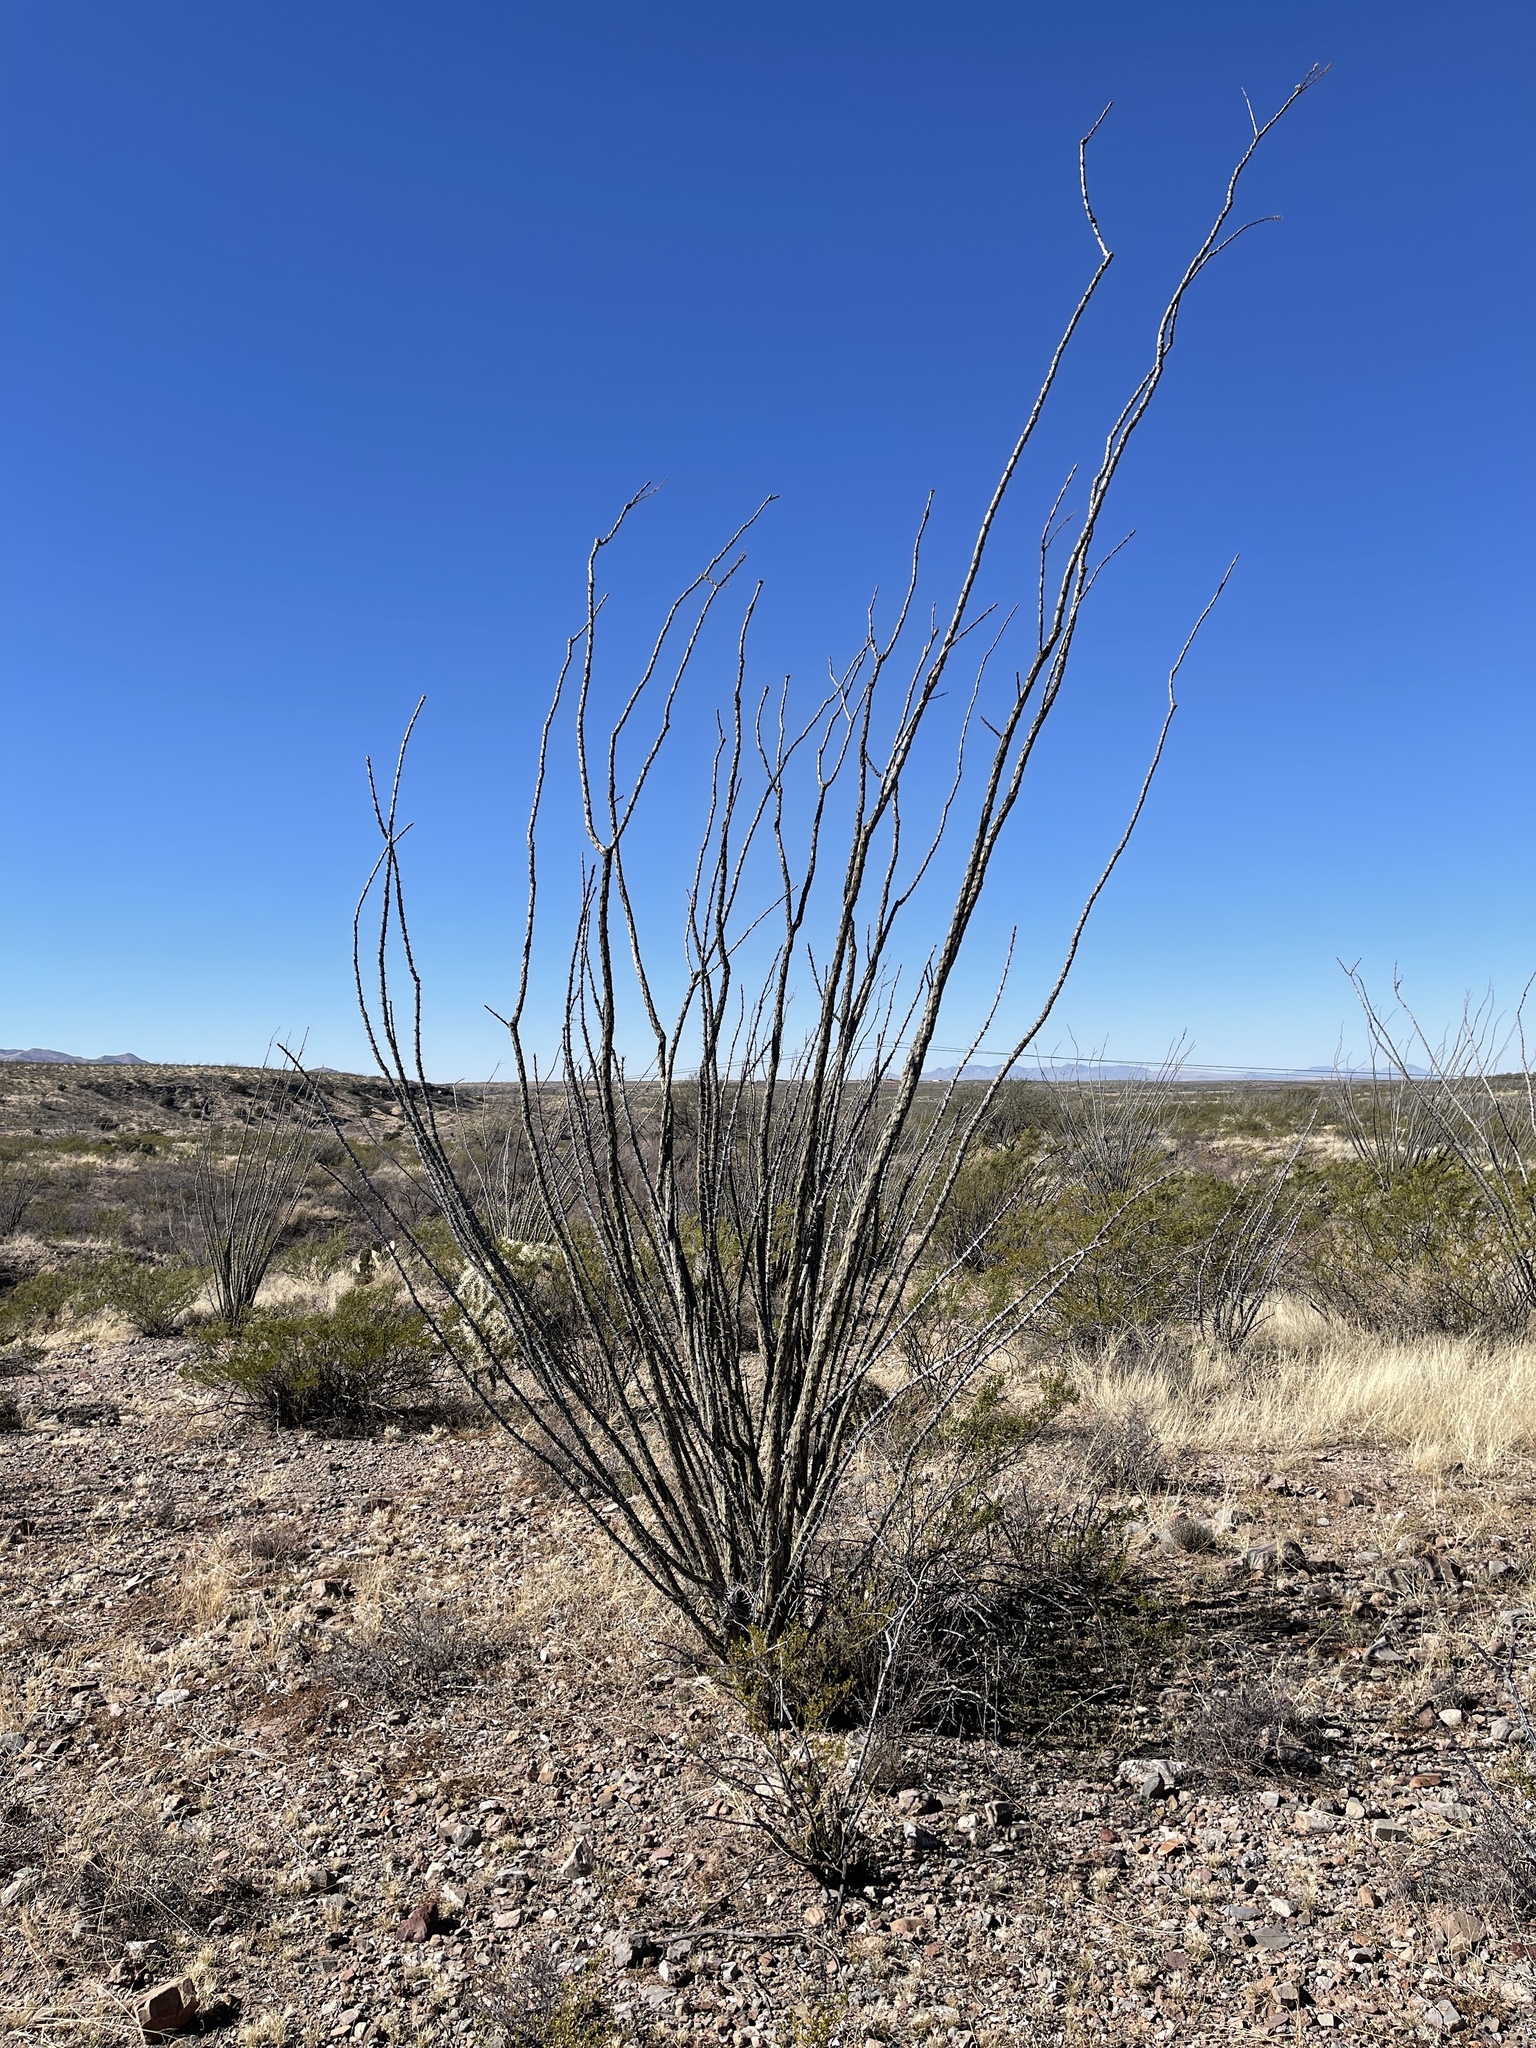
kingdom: Plantae
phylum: Tracheophyta
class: Magnoliopsida
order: Ericales
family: Fouquieriaceae
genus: Fouquieria
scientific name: Fouquieria splendens
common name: Vine-cactus
